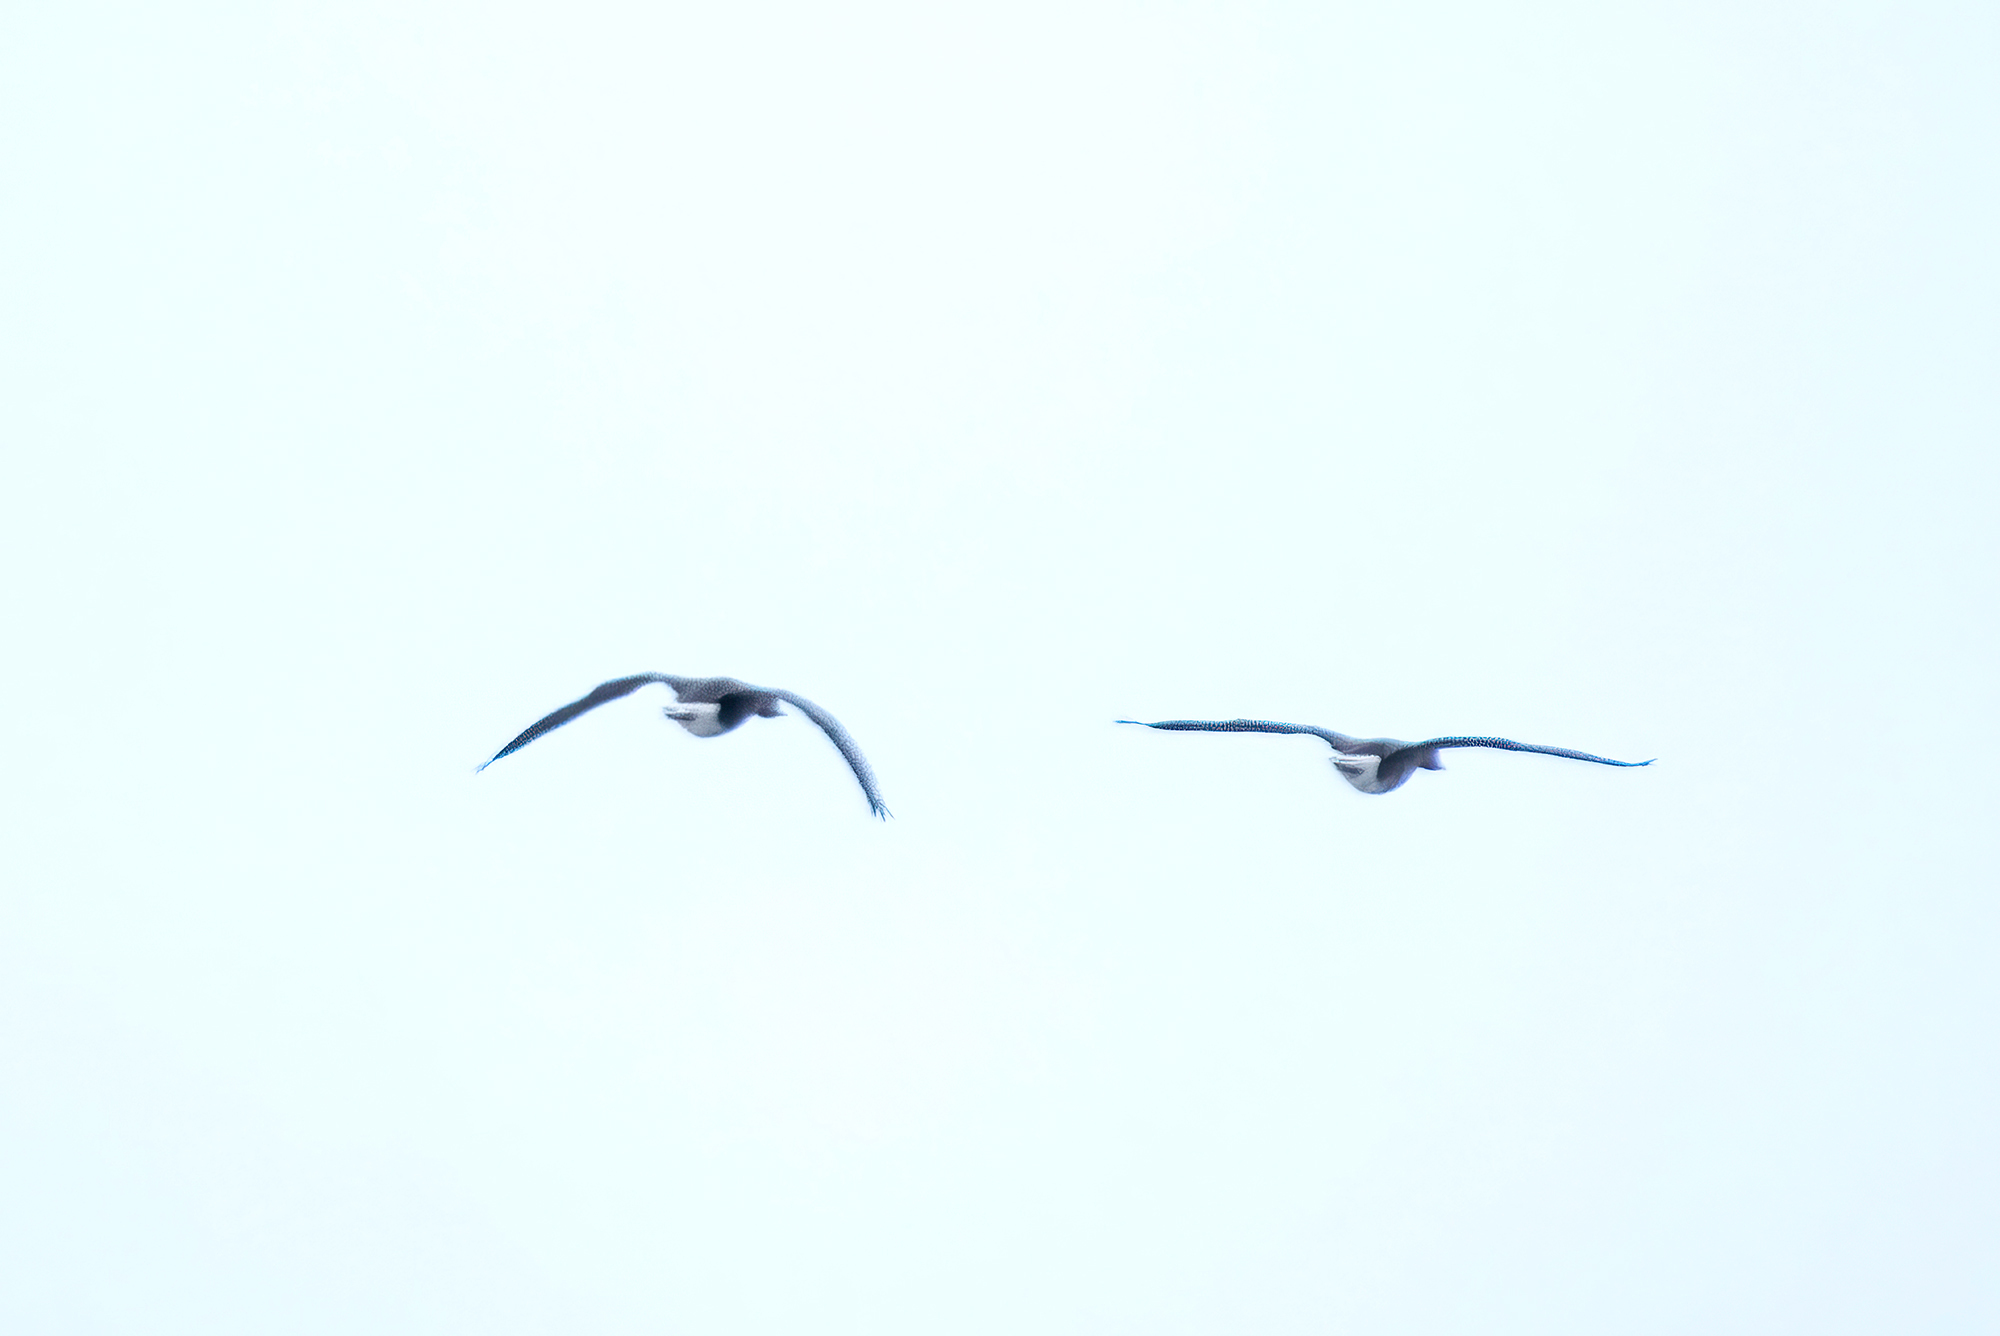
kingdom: Animalia
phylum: Chordata
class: Aves
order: Anseriformes
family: Anatidae
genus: Anser
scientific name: Anser albifrons
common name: Greater white-fronted goose
